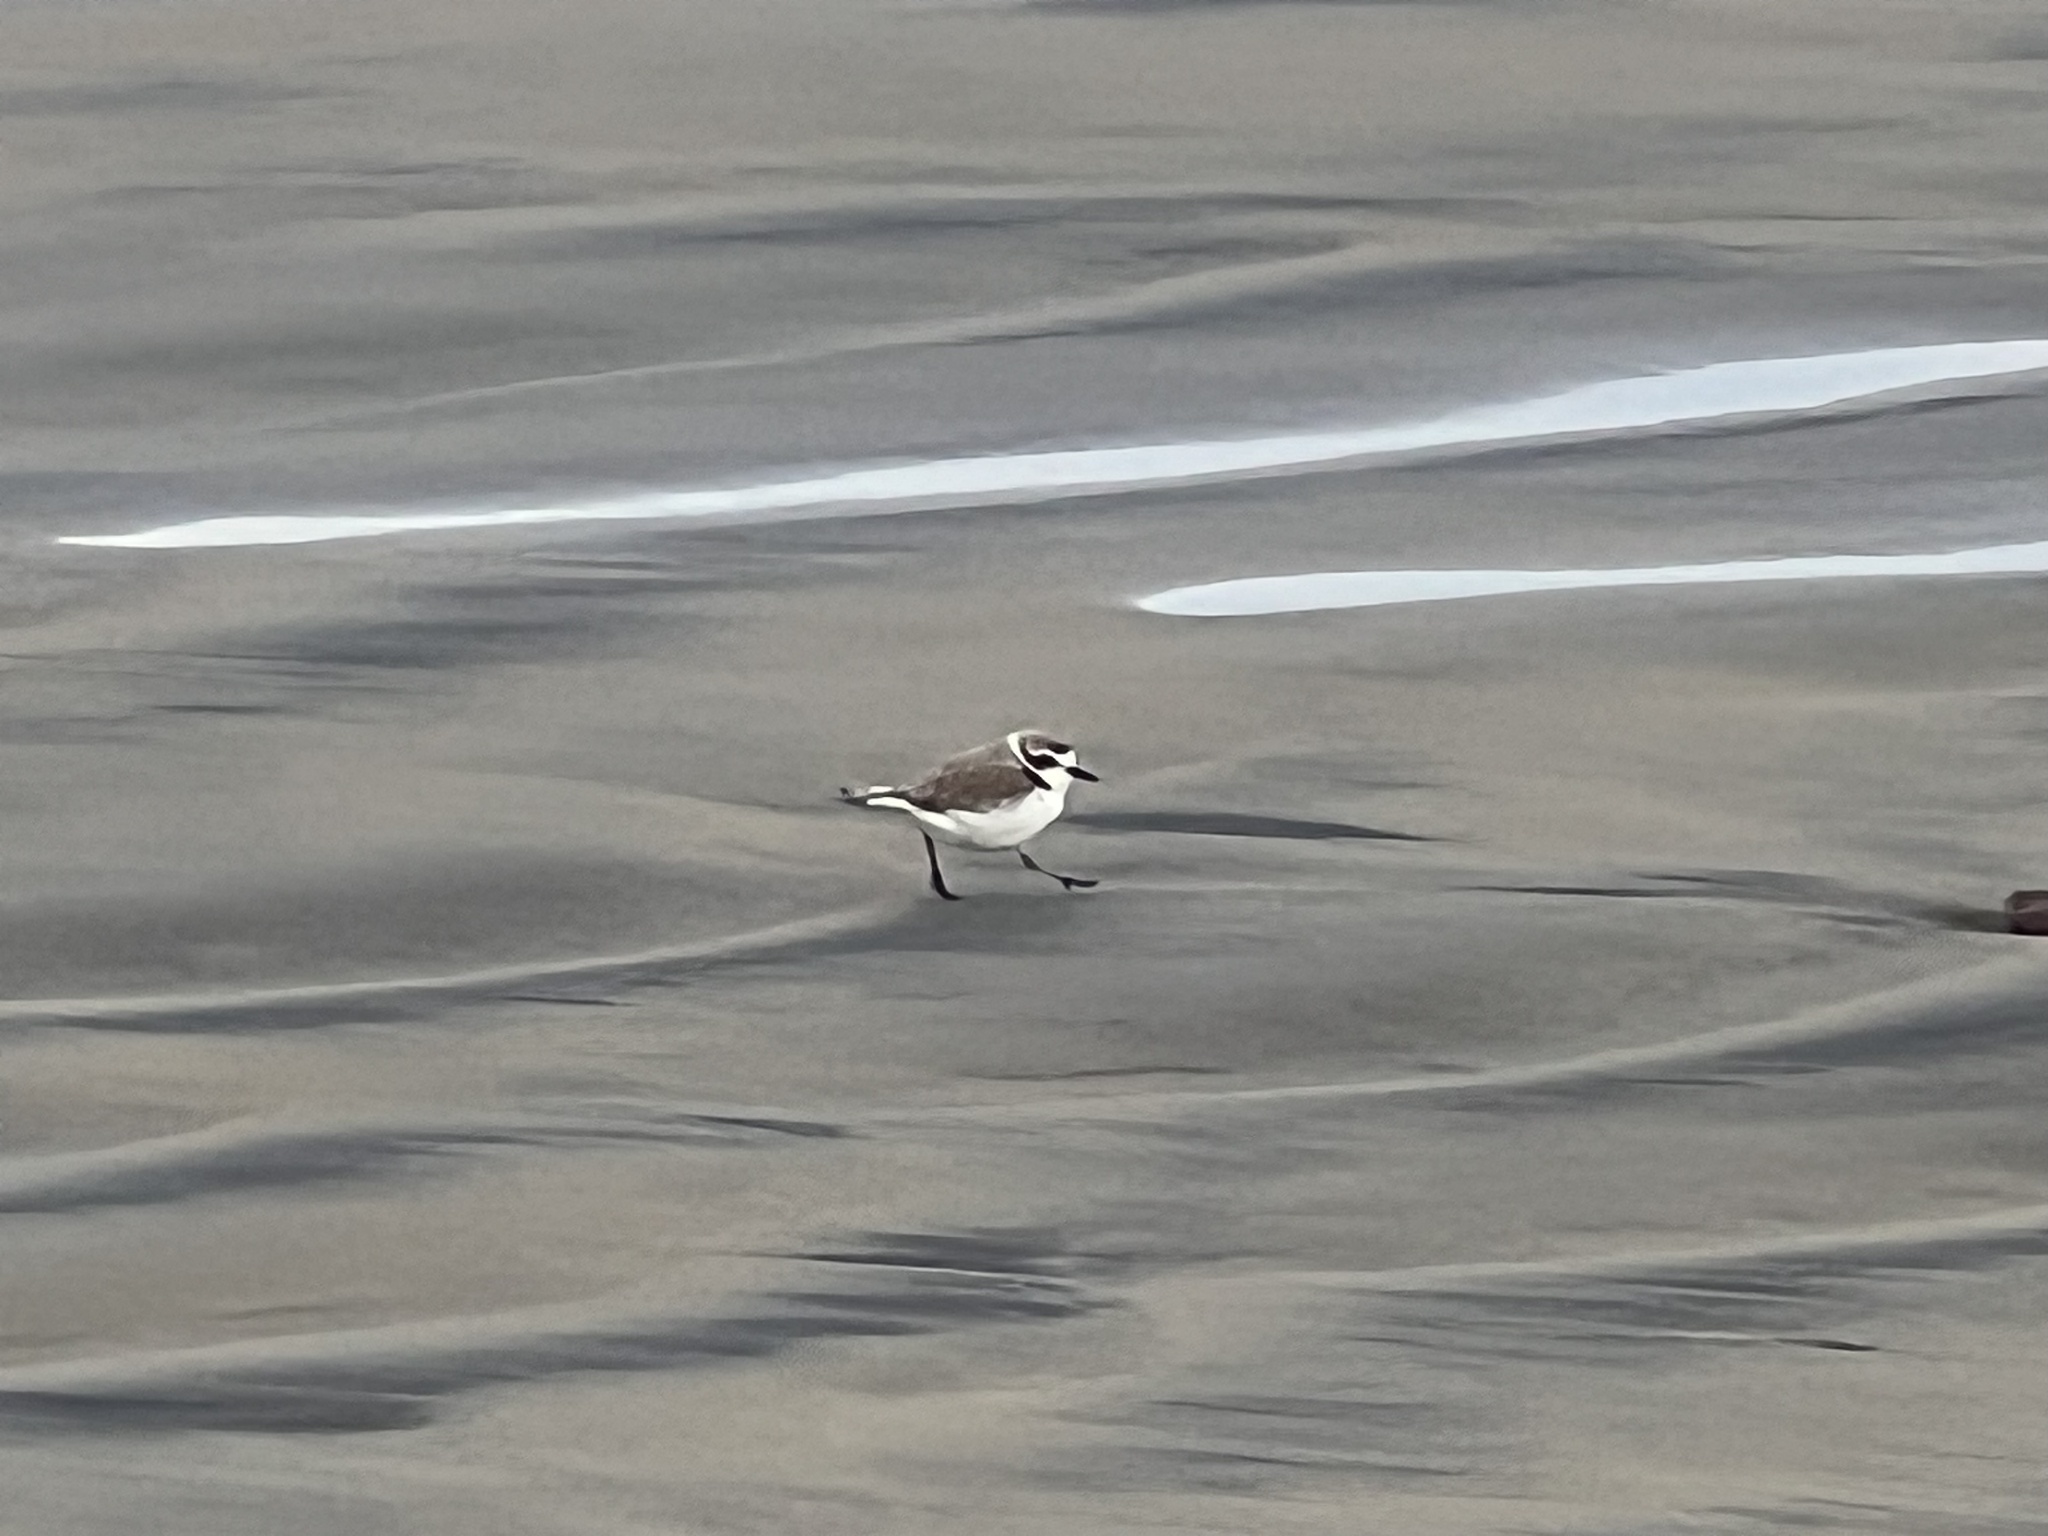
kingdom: Animalia
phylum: Chordata
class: Aves
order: Charadriiformes
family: Charadriidae
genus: Anarhynchus
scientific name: Anarhynchus
